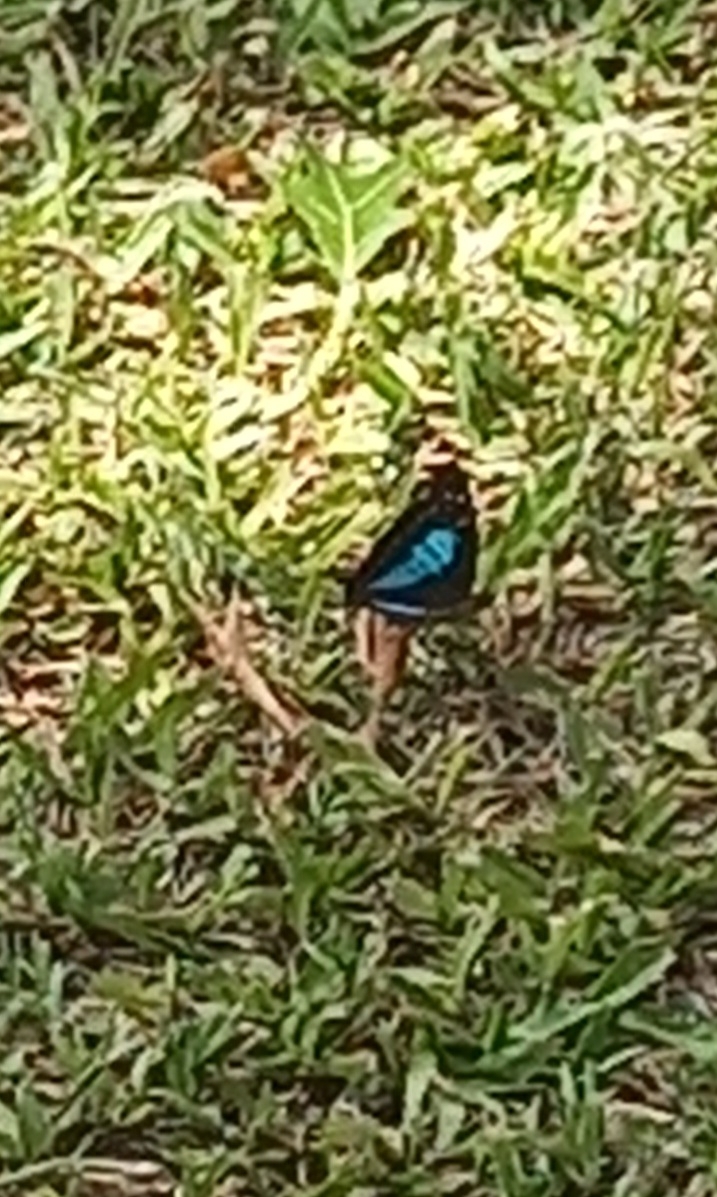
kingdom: Animalia
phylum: Arthropoda
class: Insecta
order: Lepidoptera
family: Nymphalidae
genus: Doxocopa
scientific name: Doxocopa laurentia
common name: Turquoise emperor
